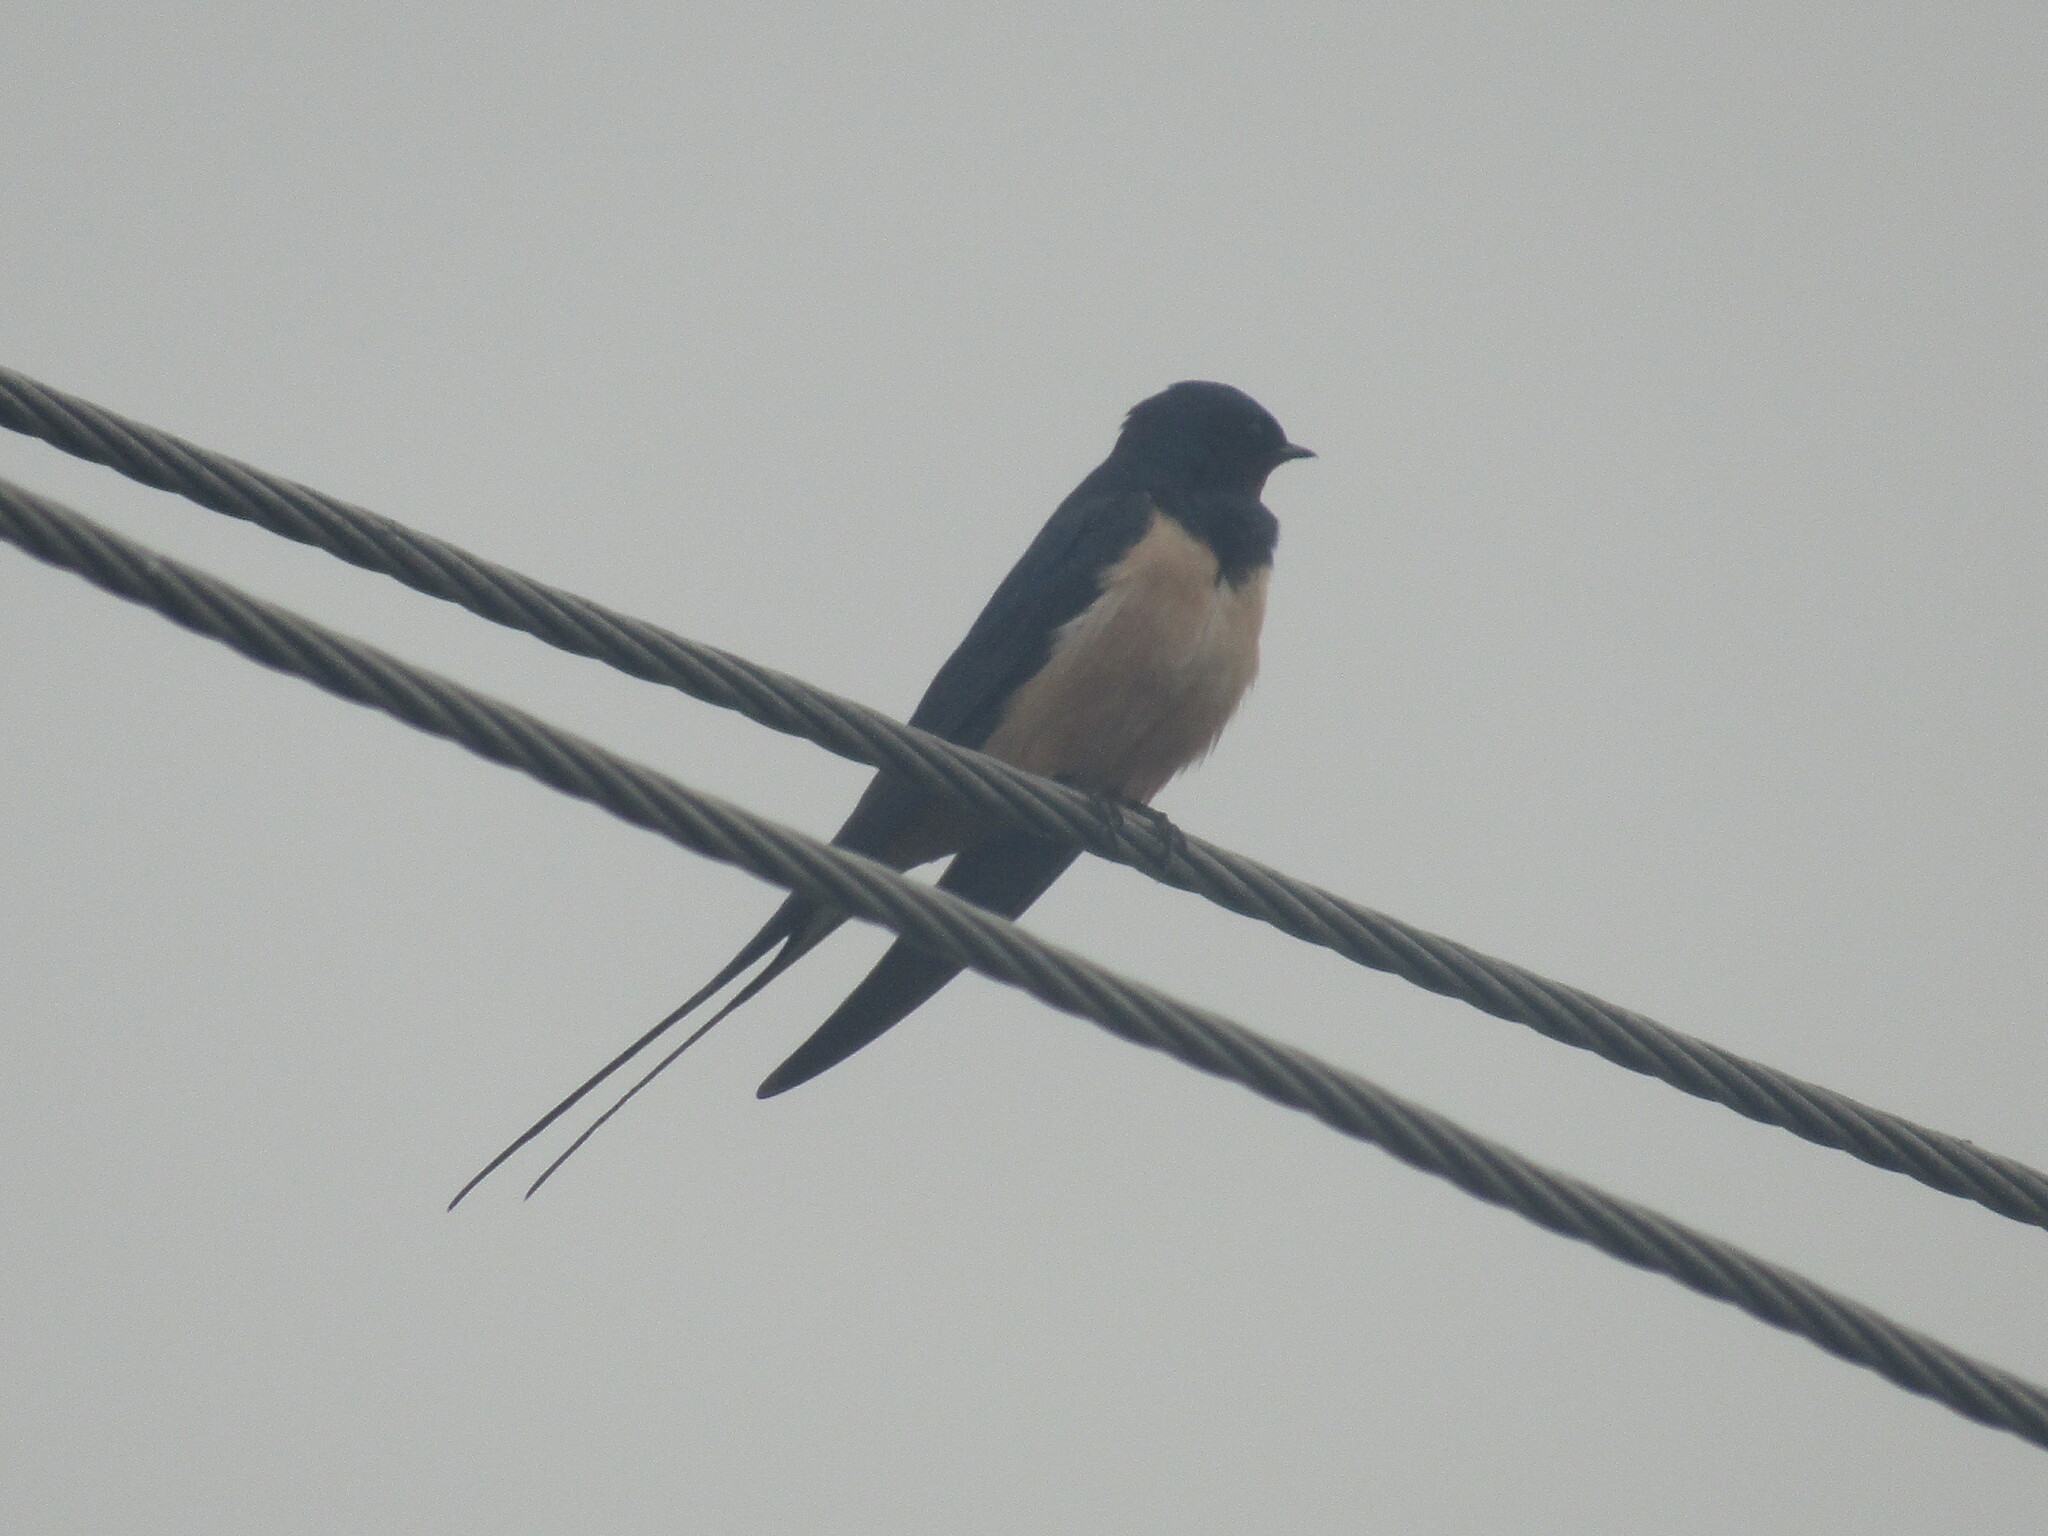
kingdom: Animalia
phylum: Chordata
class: Aves
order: Passeriformes
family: Hirundinidae
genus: Hirundo
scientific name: Hirundo rustica
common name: Barn swallow
